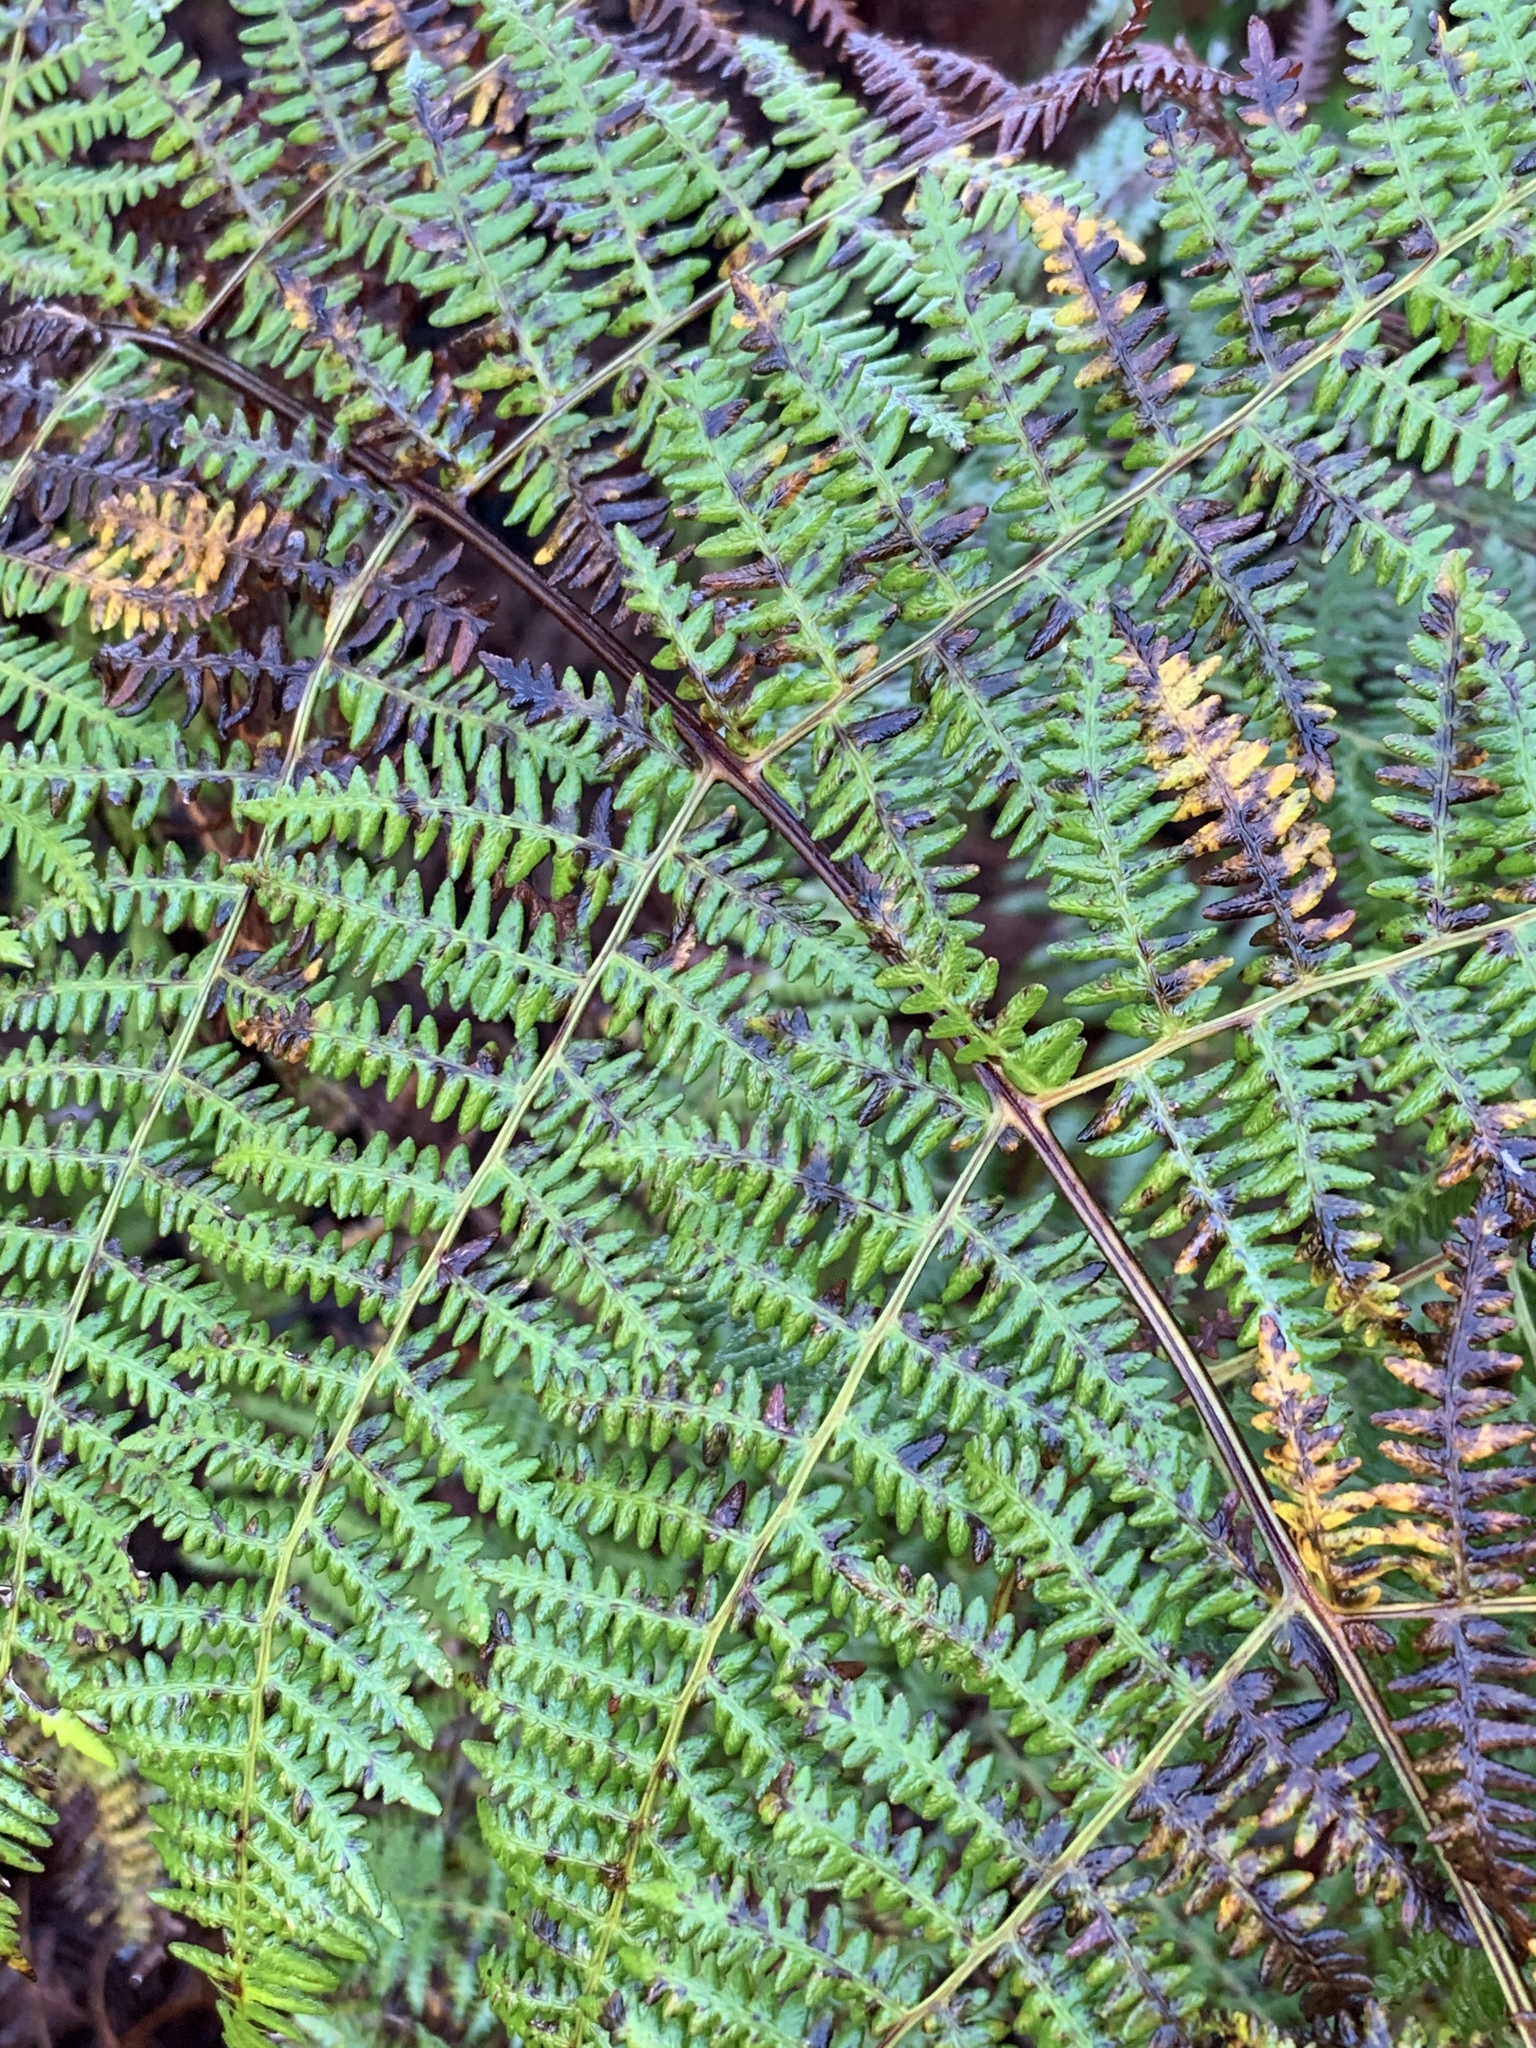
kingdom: Plantae
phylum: Tracheophyta
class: Polypodiopsida
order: Polypodiales
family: Dennstaedtiaceae
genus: Pteridium
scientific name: Pteridium aquilinum
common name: Bracken
